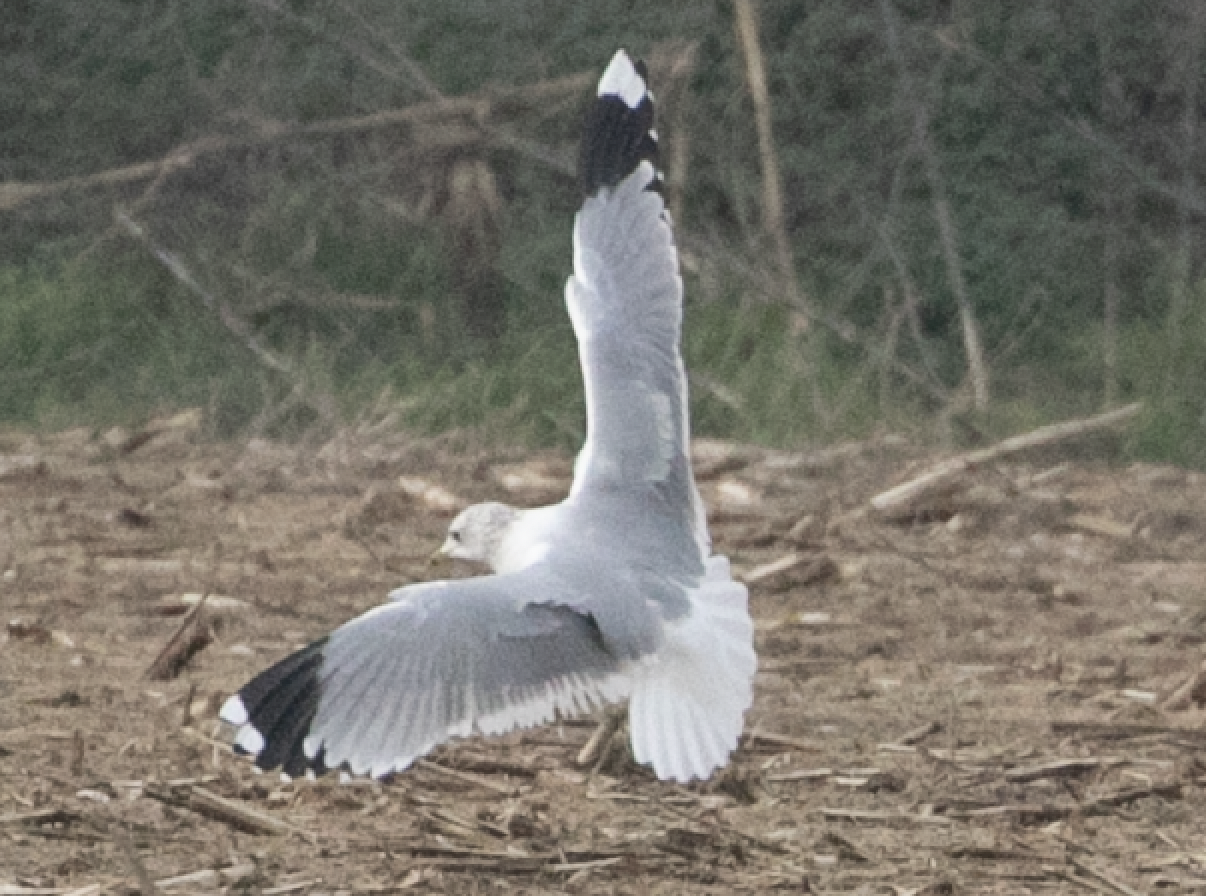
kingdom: Animalia
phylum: Chordata
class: Aves
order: Charadriiformes
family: Laridae
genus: Larus
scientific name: Larus canus
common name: Mew gull
